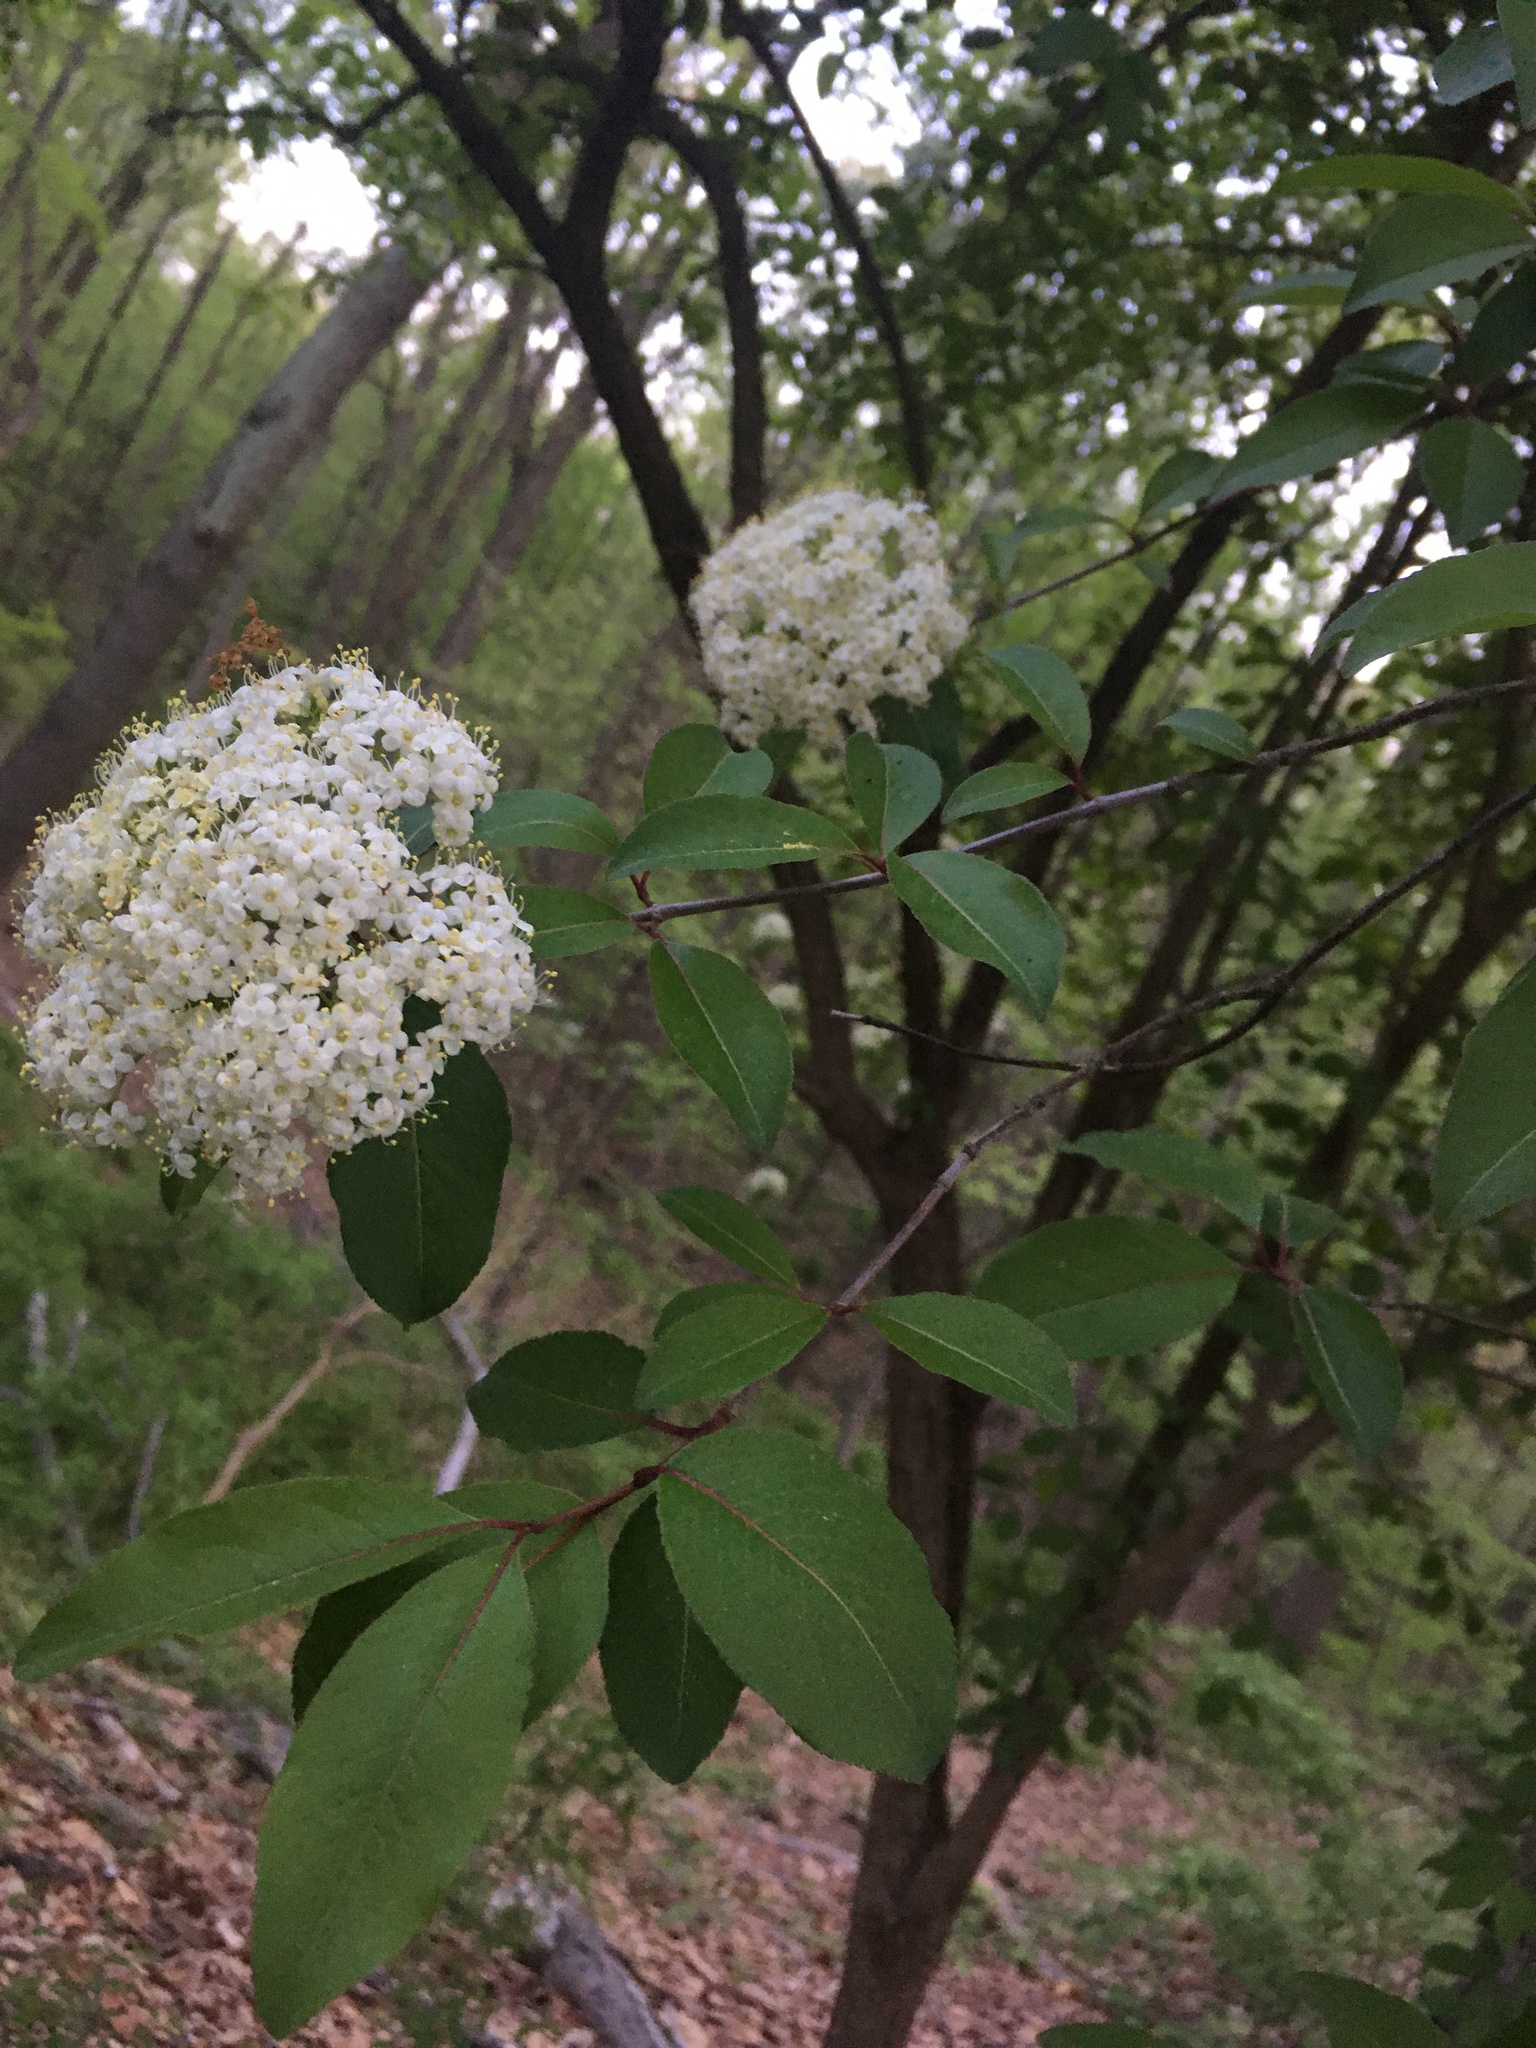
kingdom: Plantae
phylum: Tracheophyta
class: Magnoliopsida
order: Dipsacales
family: Viburnaceae
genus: Viburnum
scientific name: Viburnum prunifolium
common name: Black haw
